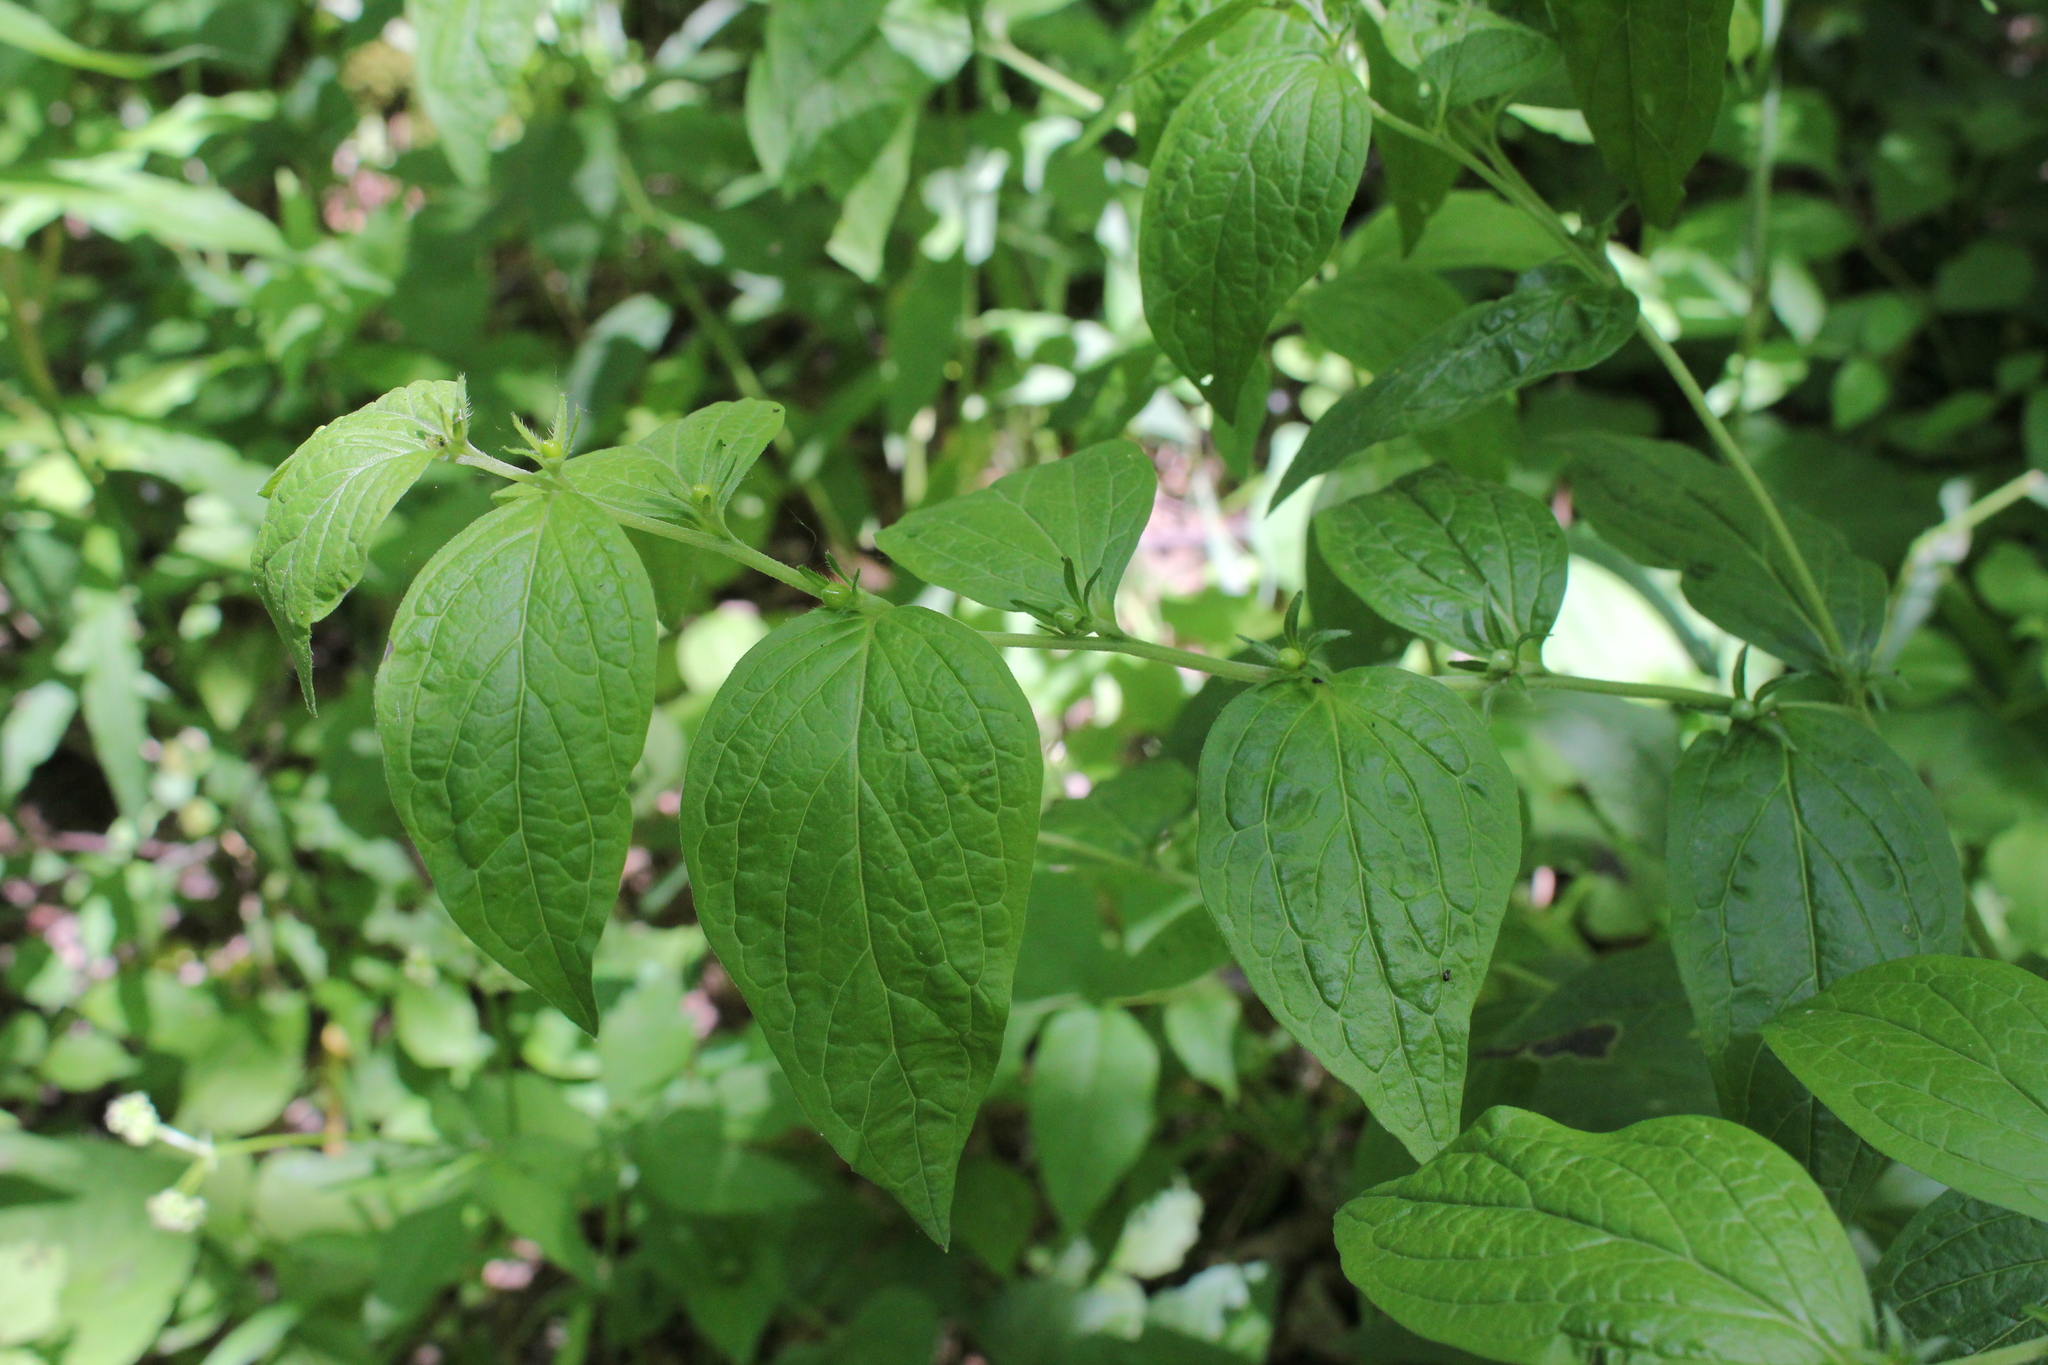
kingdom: Plantae
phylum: Tracheophyta
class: Magnoliopsida
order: Boraginales
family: Boraginaceae
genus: Lithospermum
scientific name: Lithospermum latifolium
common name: American gromwell
